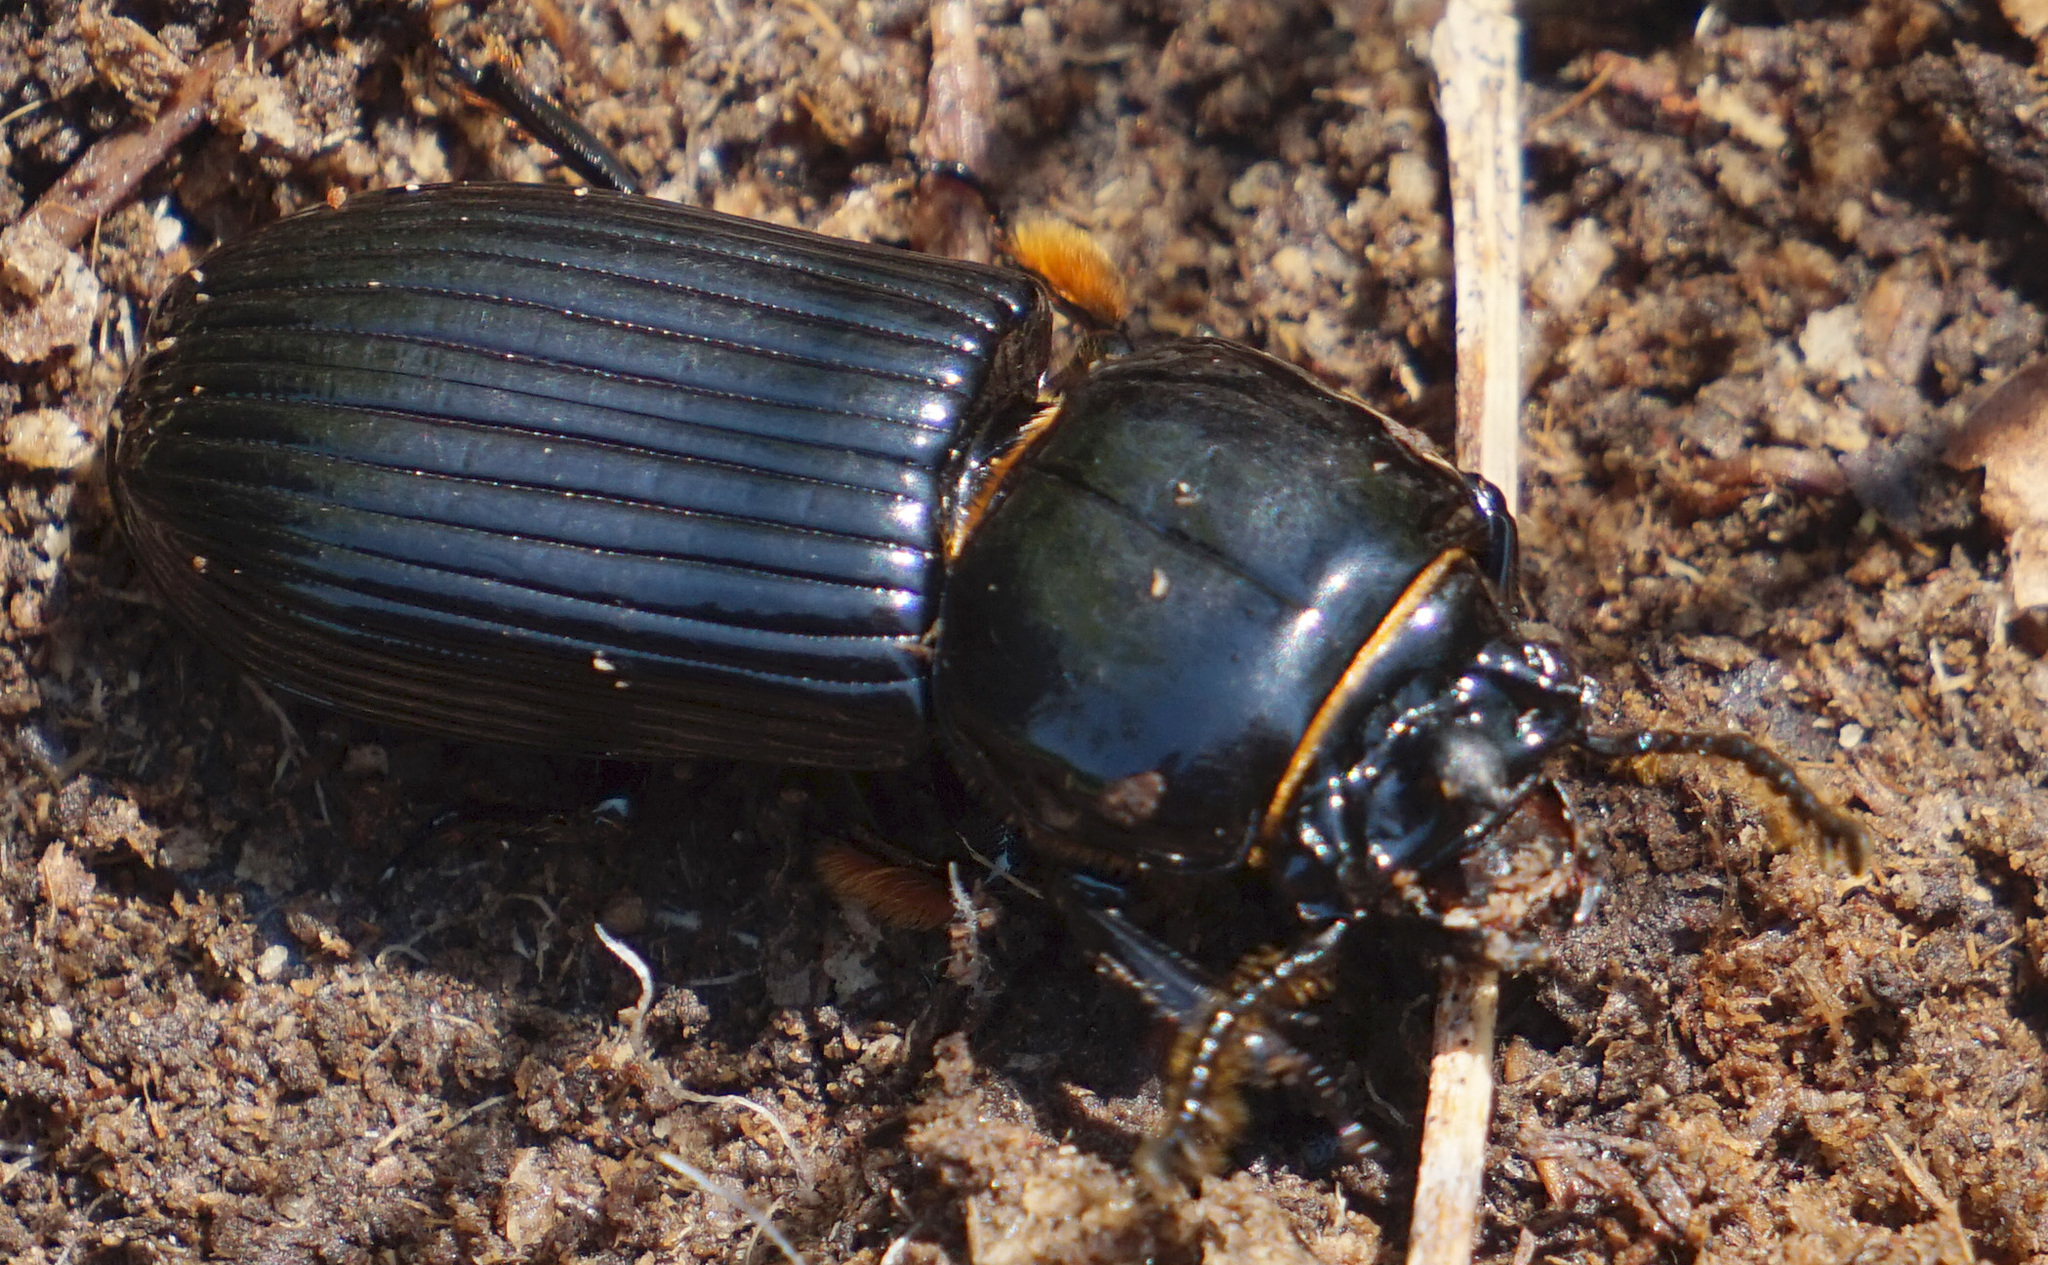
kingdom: Animalia
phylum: Arthropoda
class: Insecta
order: Coleoptera
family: Passalidae
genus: Odontotaenius
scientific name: Odontotaenius disjunctus
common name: Patent leather beetle
